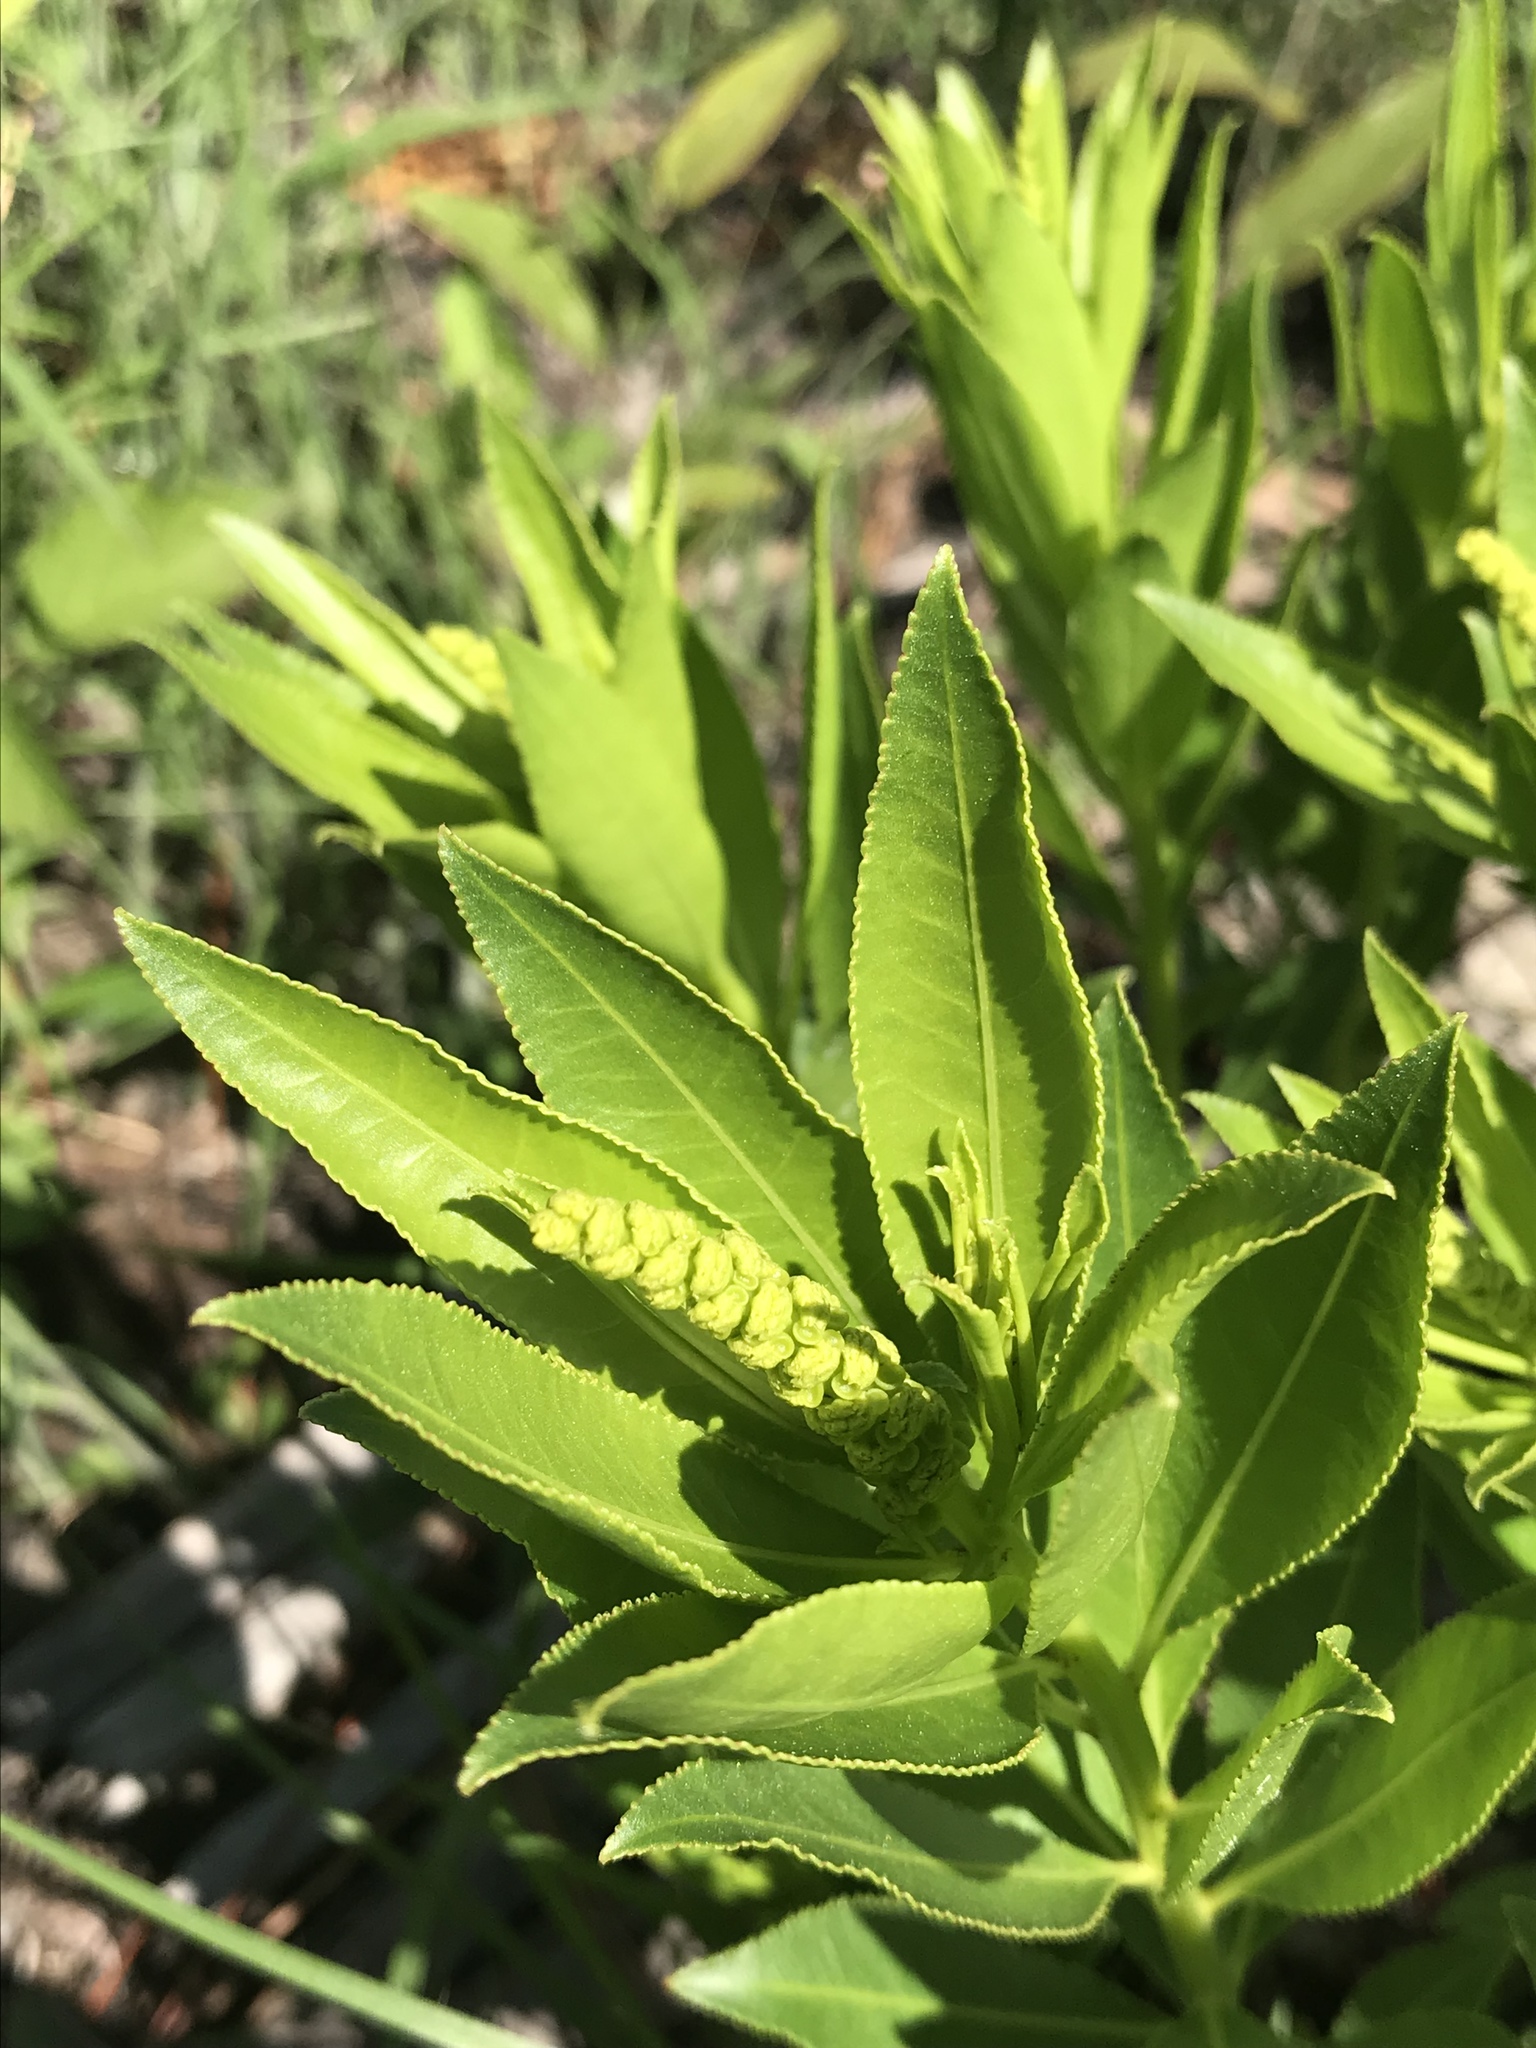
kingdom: Plantae
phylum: Tracheophyta
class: Magnoliopsida
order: Malpighiales
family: Euphorbiaceae
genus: Stillingia
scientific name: Stillingia sylvatica
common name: Queen's-delight
